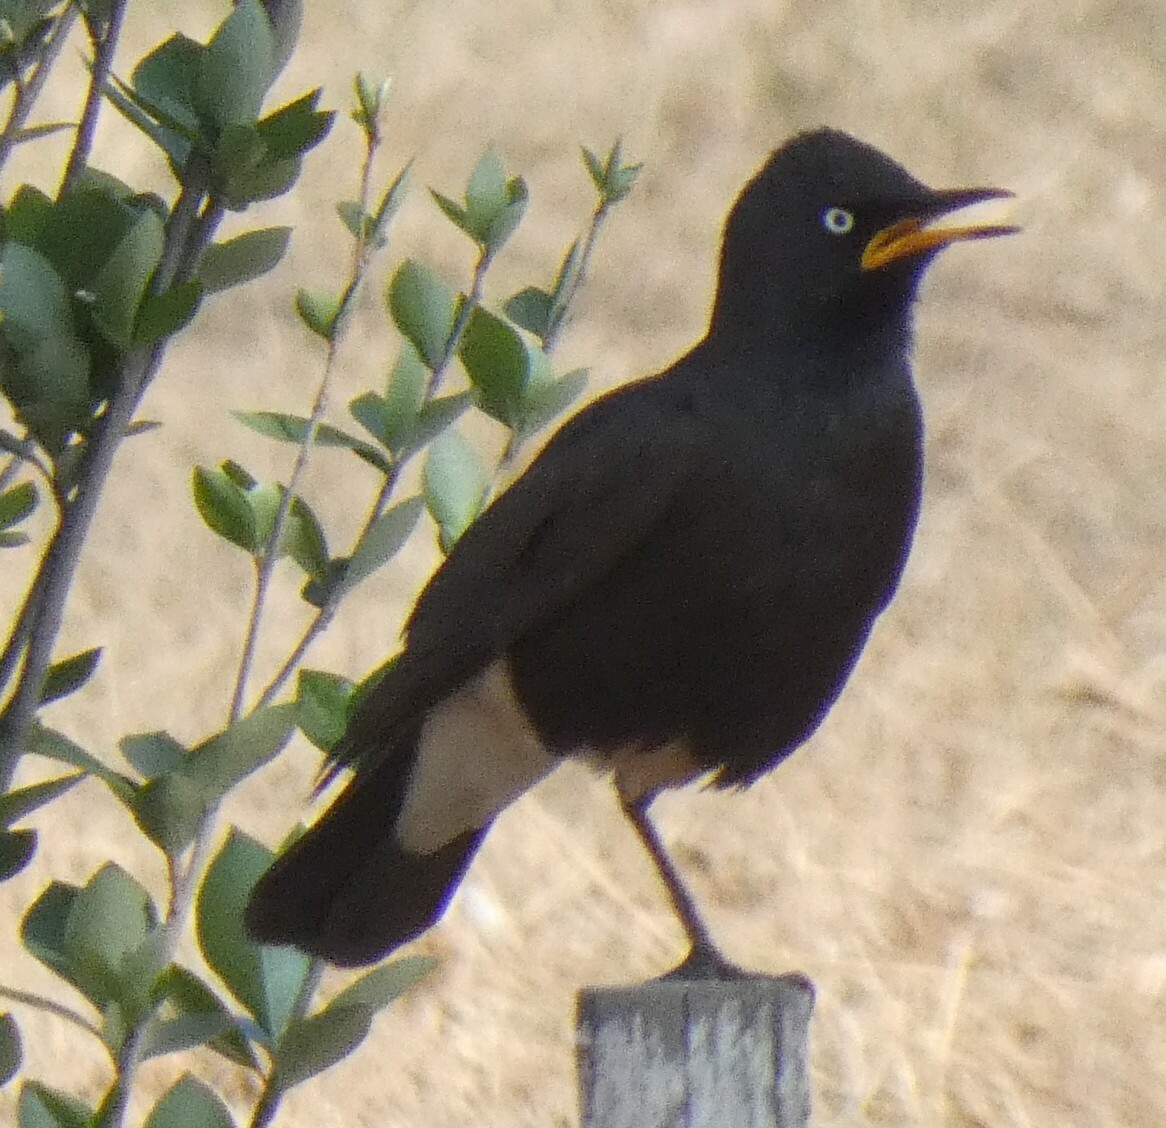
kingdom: Animalia
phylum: Chordata
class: Aves
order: Passeriformes
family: Sturnidae
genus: Lamprotornis
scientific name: Lamprotornis bicolor
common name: Pied starling
